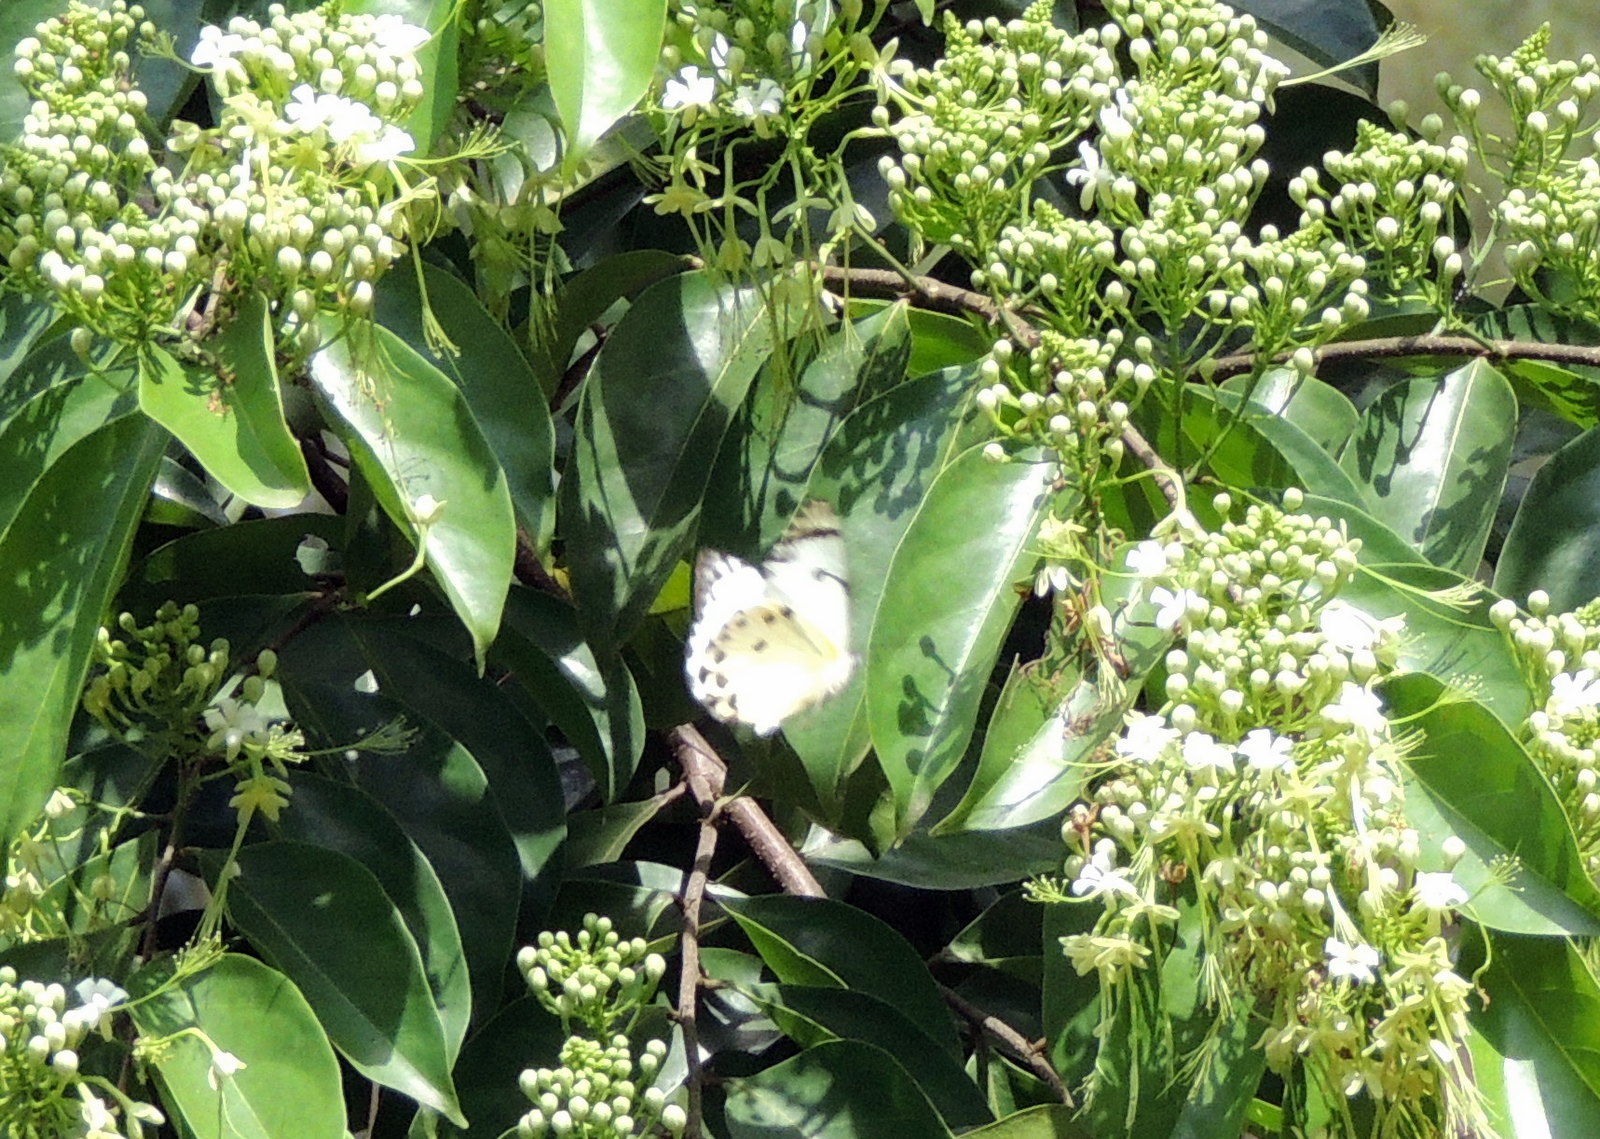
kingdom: Animalia
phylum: Arthropoda
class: Insecta
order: Lepidoptera
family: Pieridae
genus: Belenois
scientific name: Belenois calypso
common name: Calypso caper white
